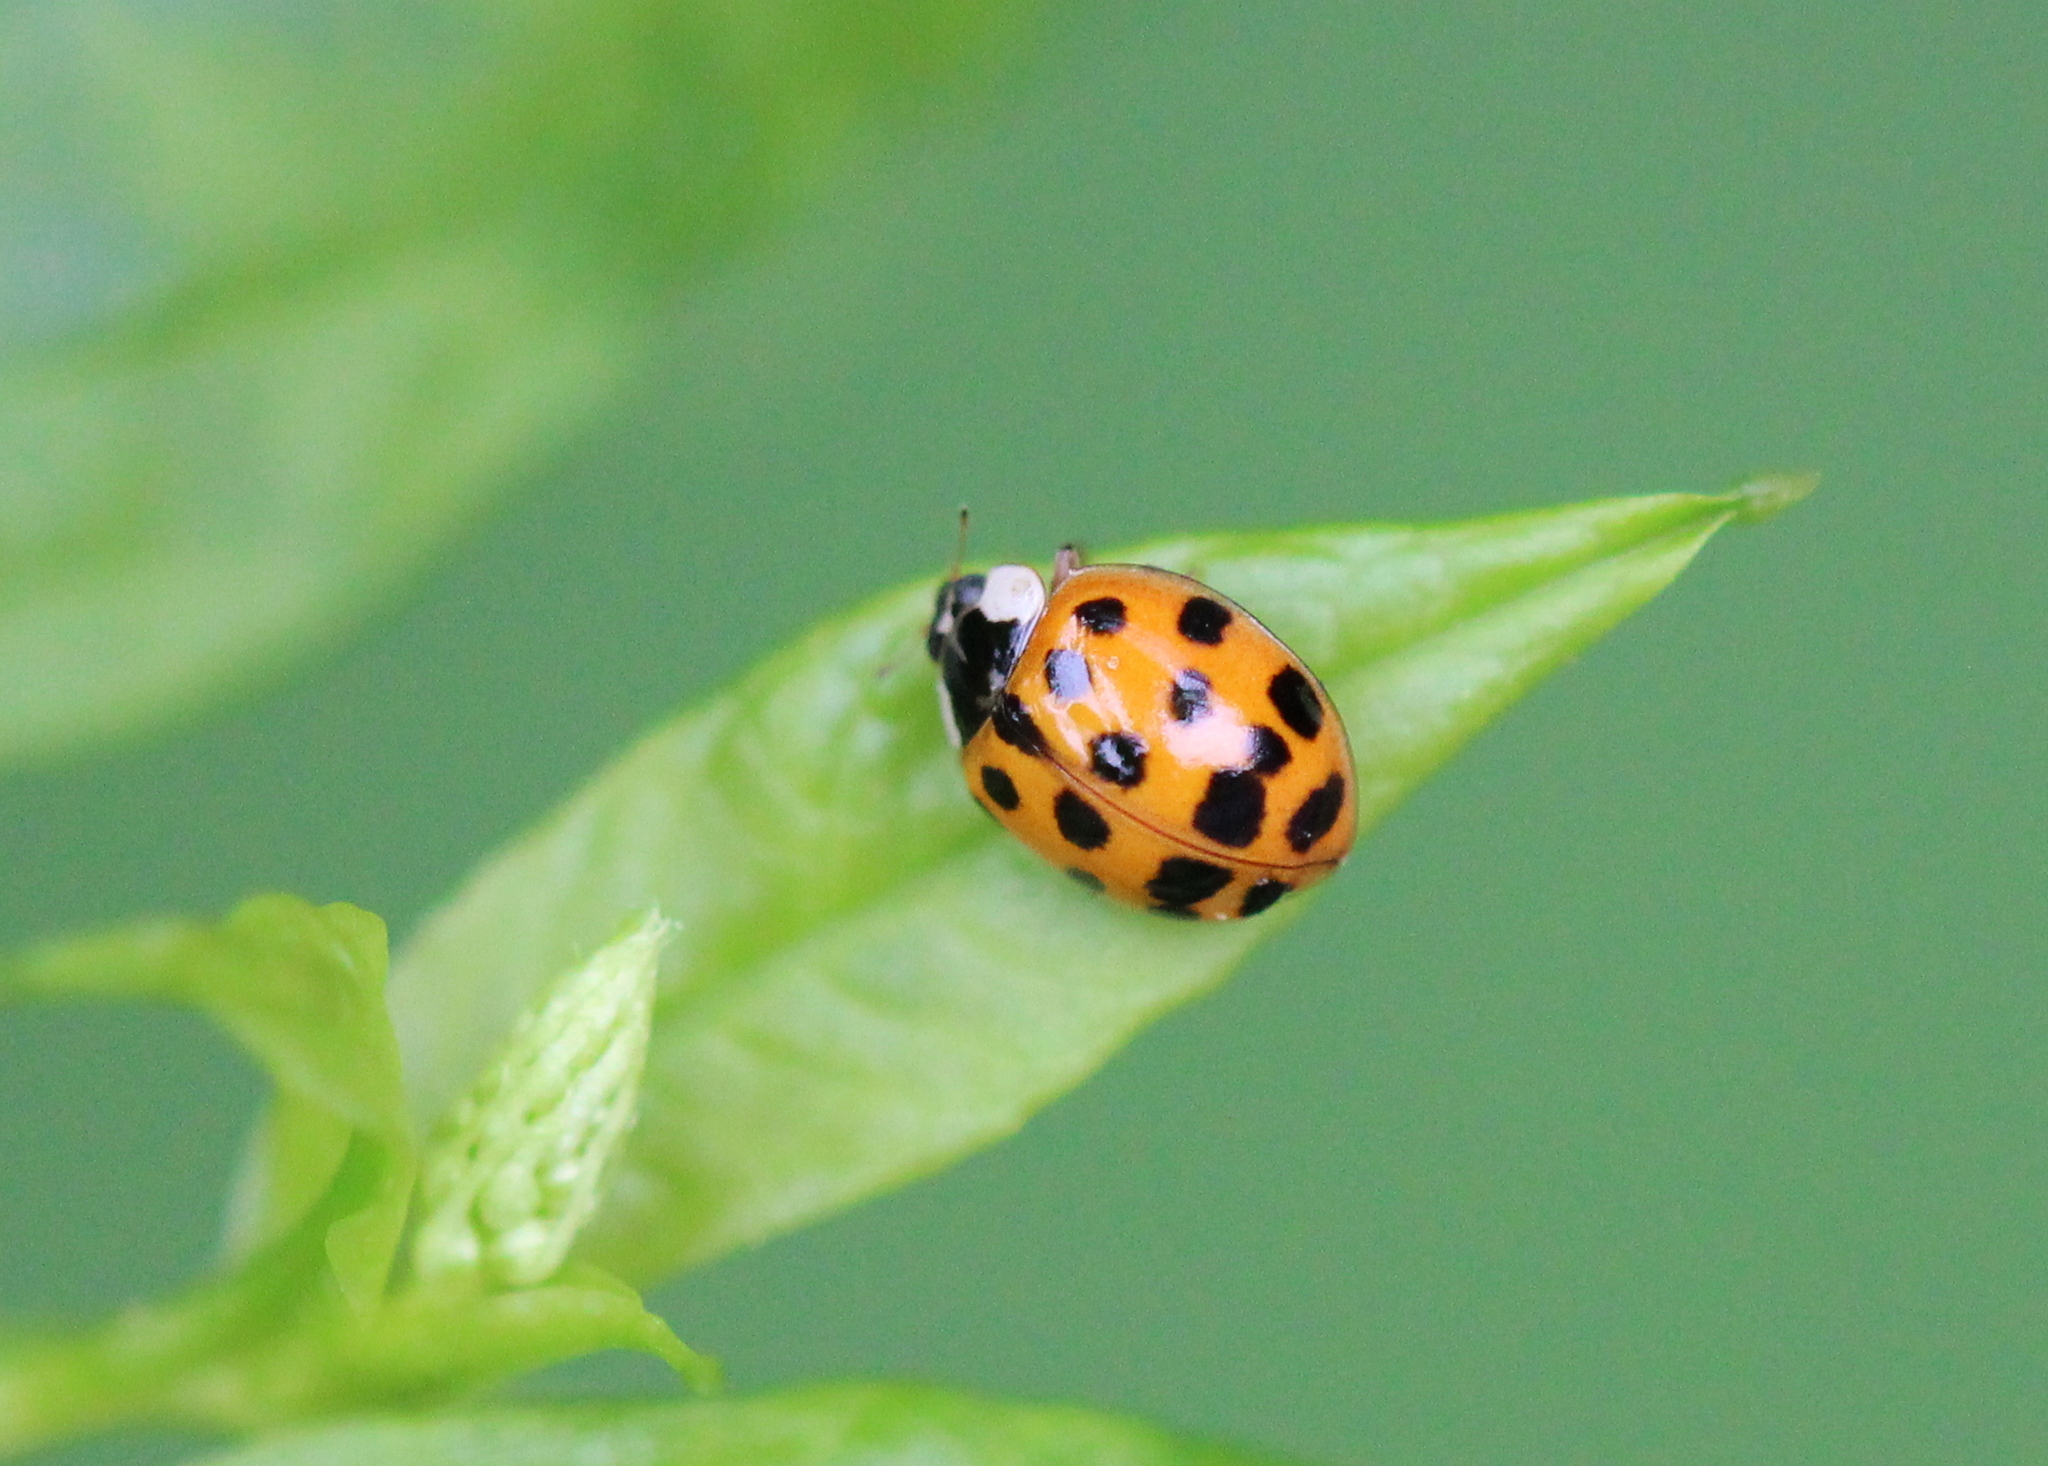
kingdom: Animalia
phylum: Arthropoda
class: Insecta
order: Coleoptera
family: Coccinellidae
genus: Harmonia
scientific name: Harmonia axyridis
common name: Harlequin ladybird
